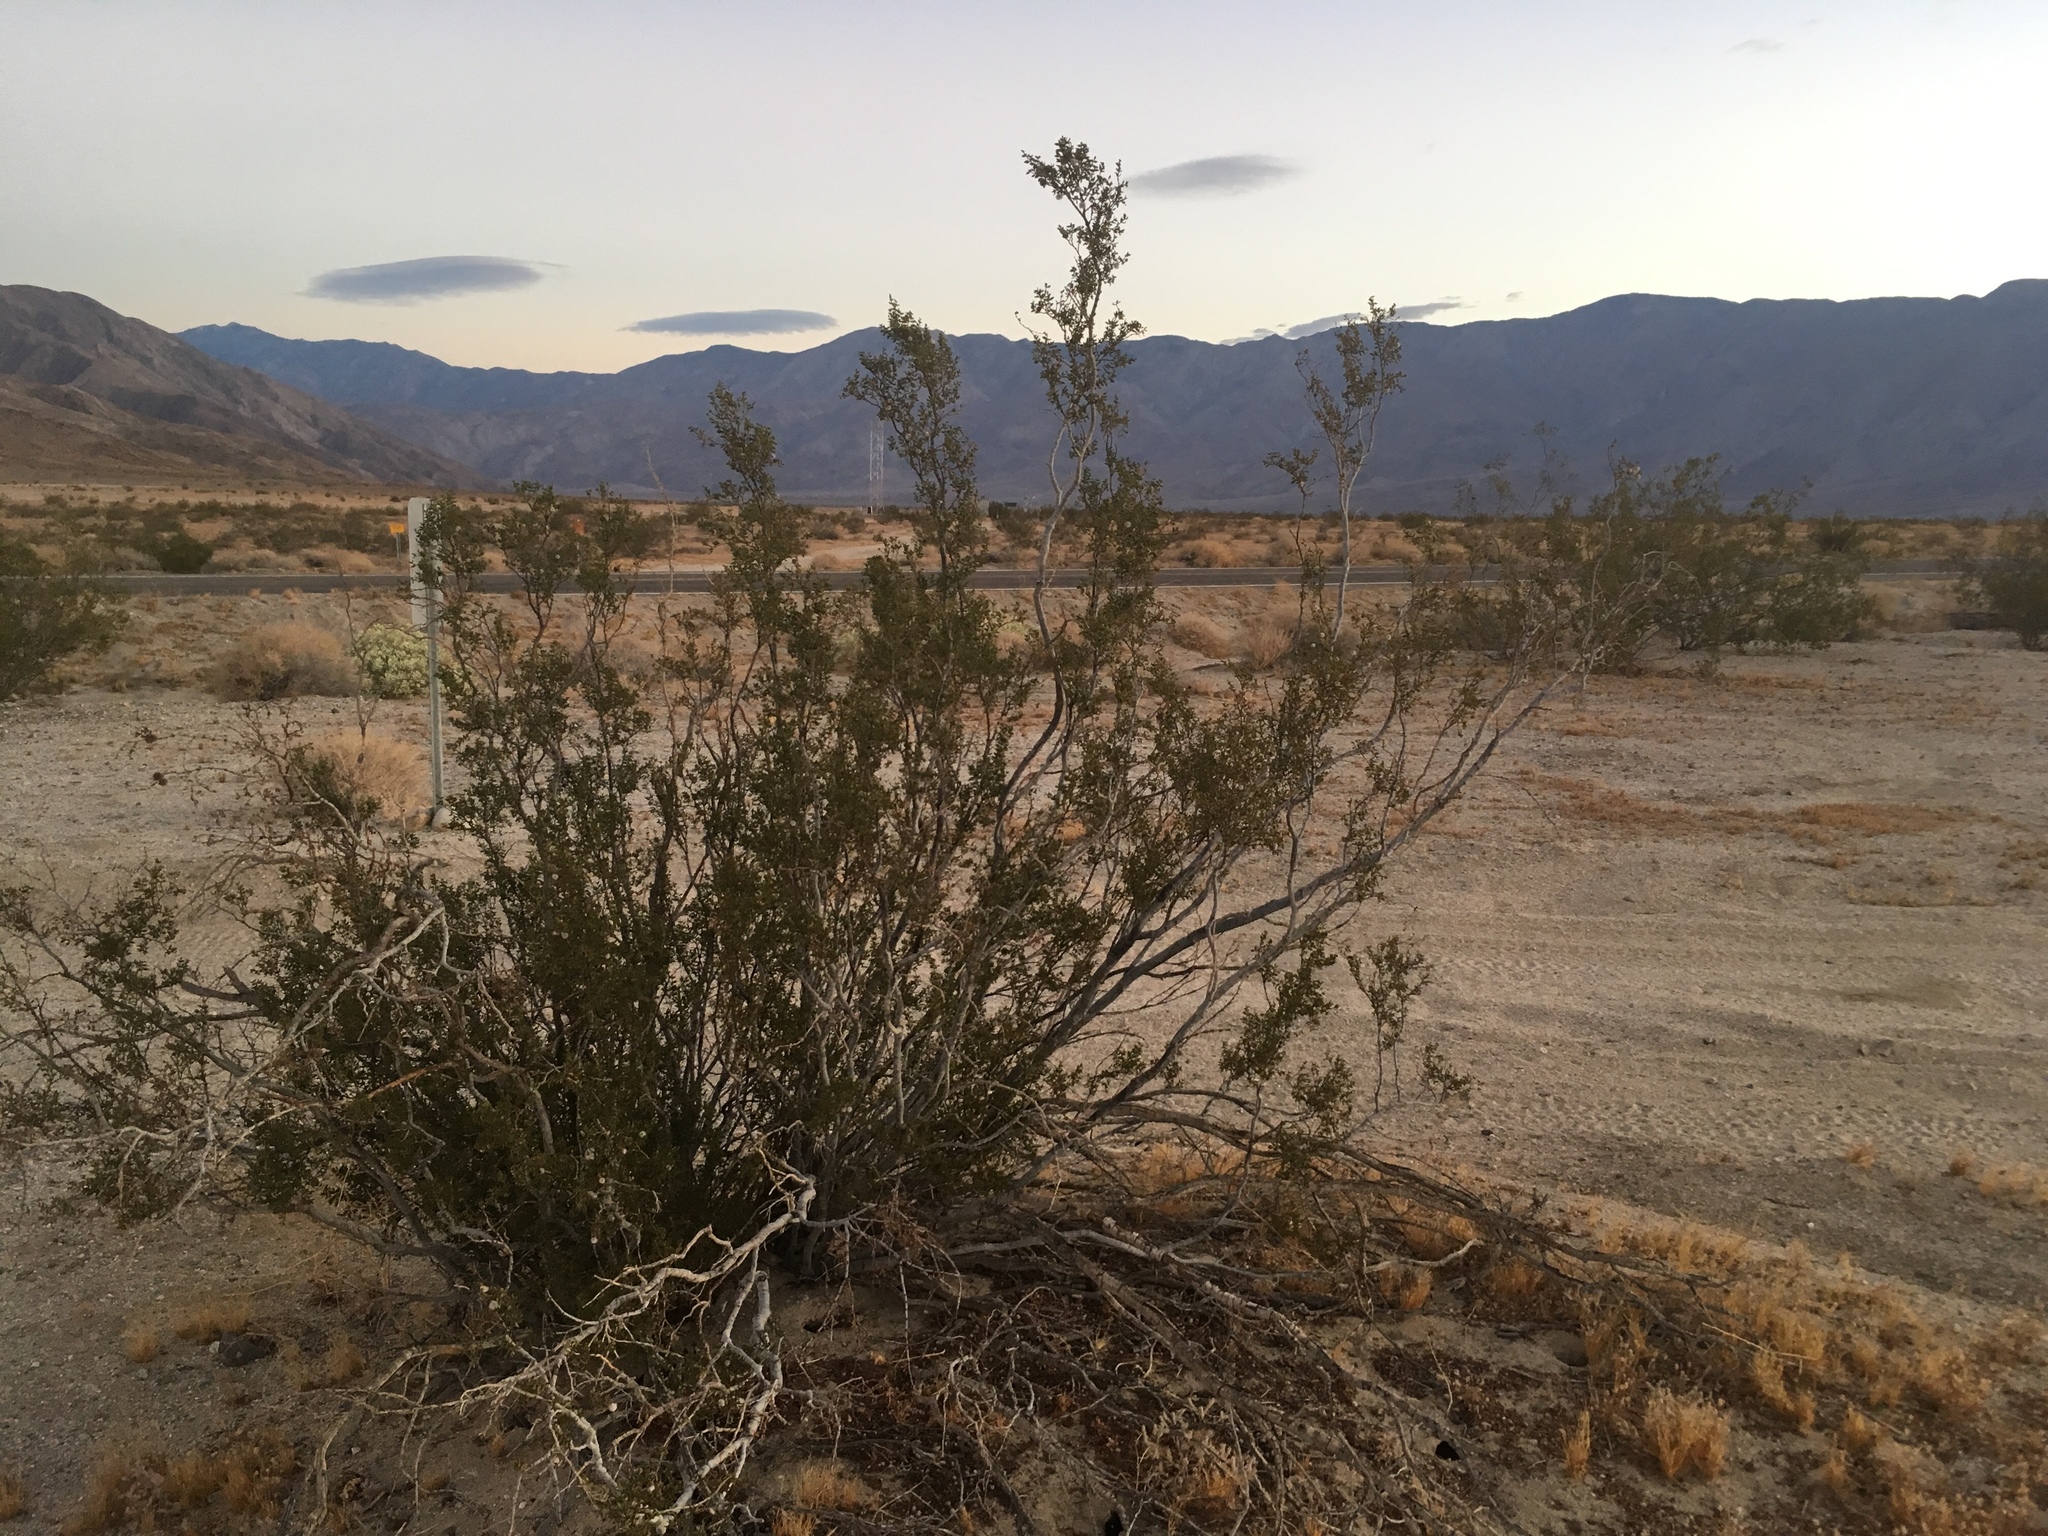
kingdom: Plantae
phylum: Tracheophyta
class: Magnoliopsida
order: Zygophyllales
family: Zygophyllaceae
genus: Larrea
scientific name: Larrea tridentata
